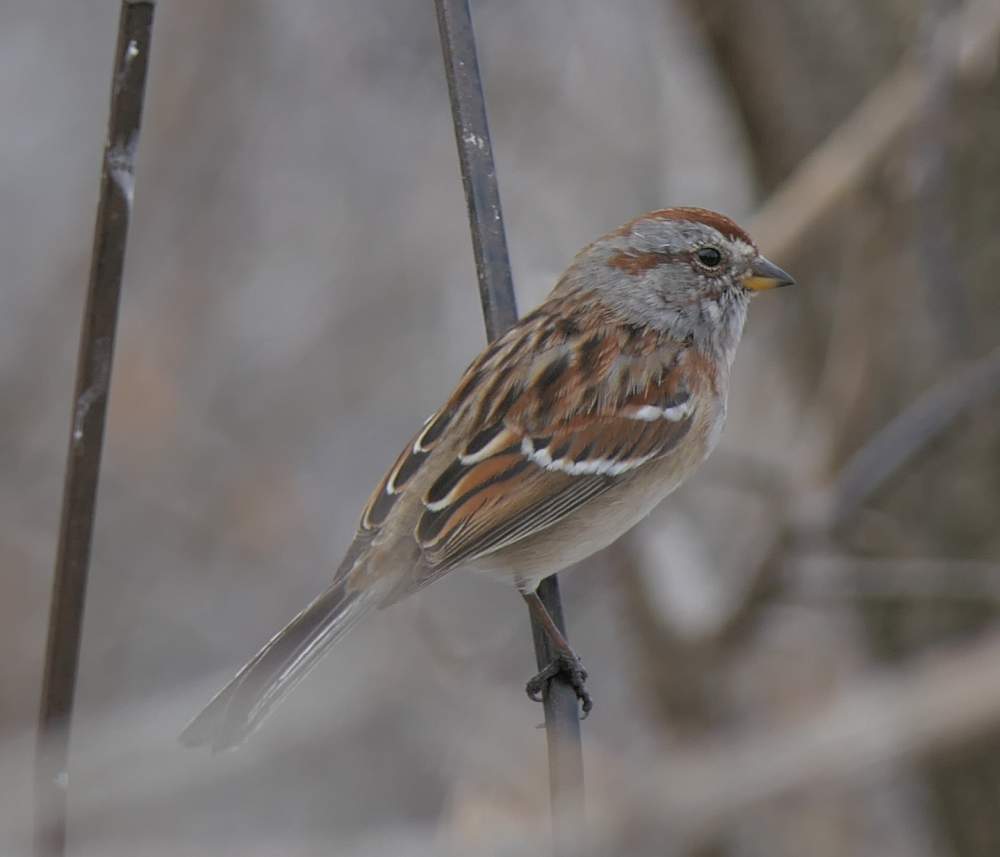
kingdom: Animalia
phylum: Chordata
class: Aves
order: Passeriformes
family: Passerellidae
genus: Spizelloides
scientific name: Spizelloides arborea
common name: American tree sparrow
